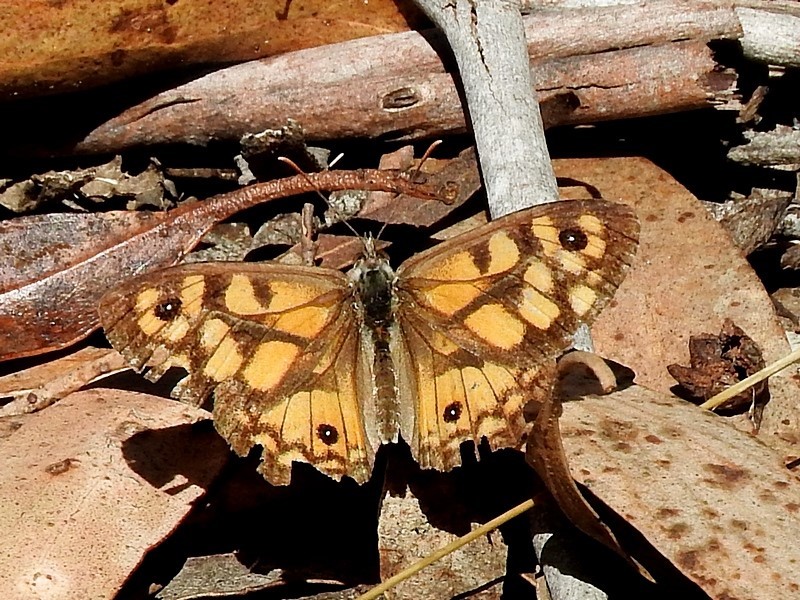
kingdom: Animalia
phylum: Arthropoda
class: Insecta
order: Lepidoptera
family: Nymphalidae
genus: Geitoneura
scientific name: Geitoneura klugii
